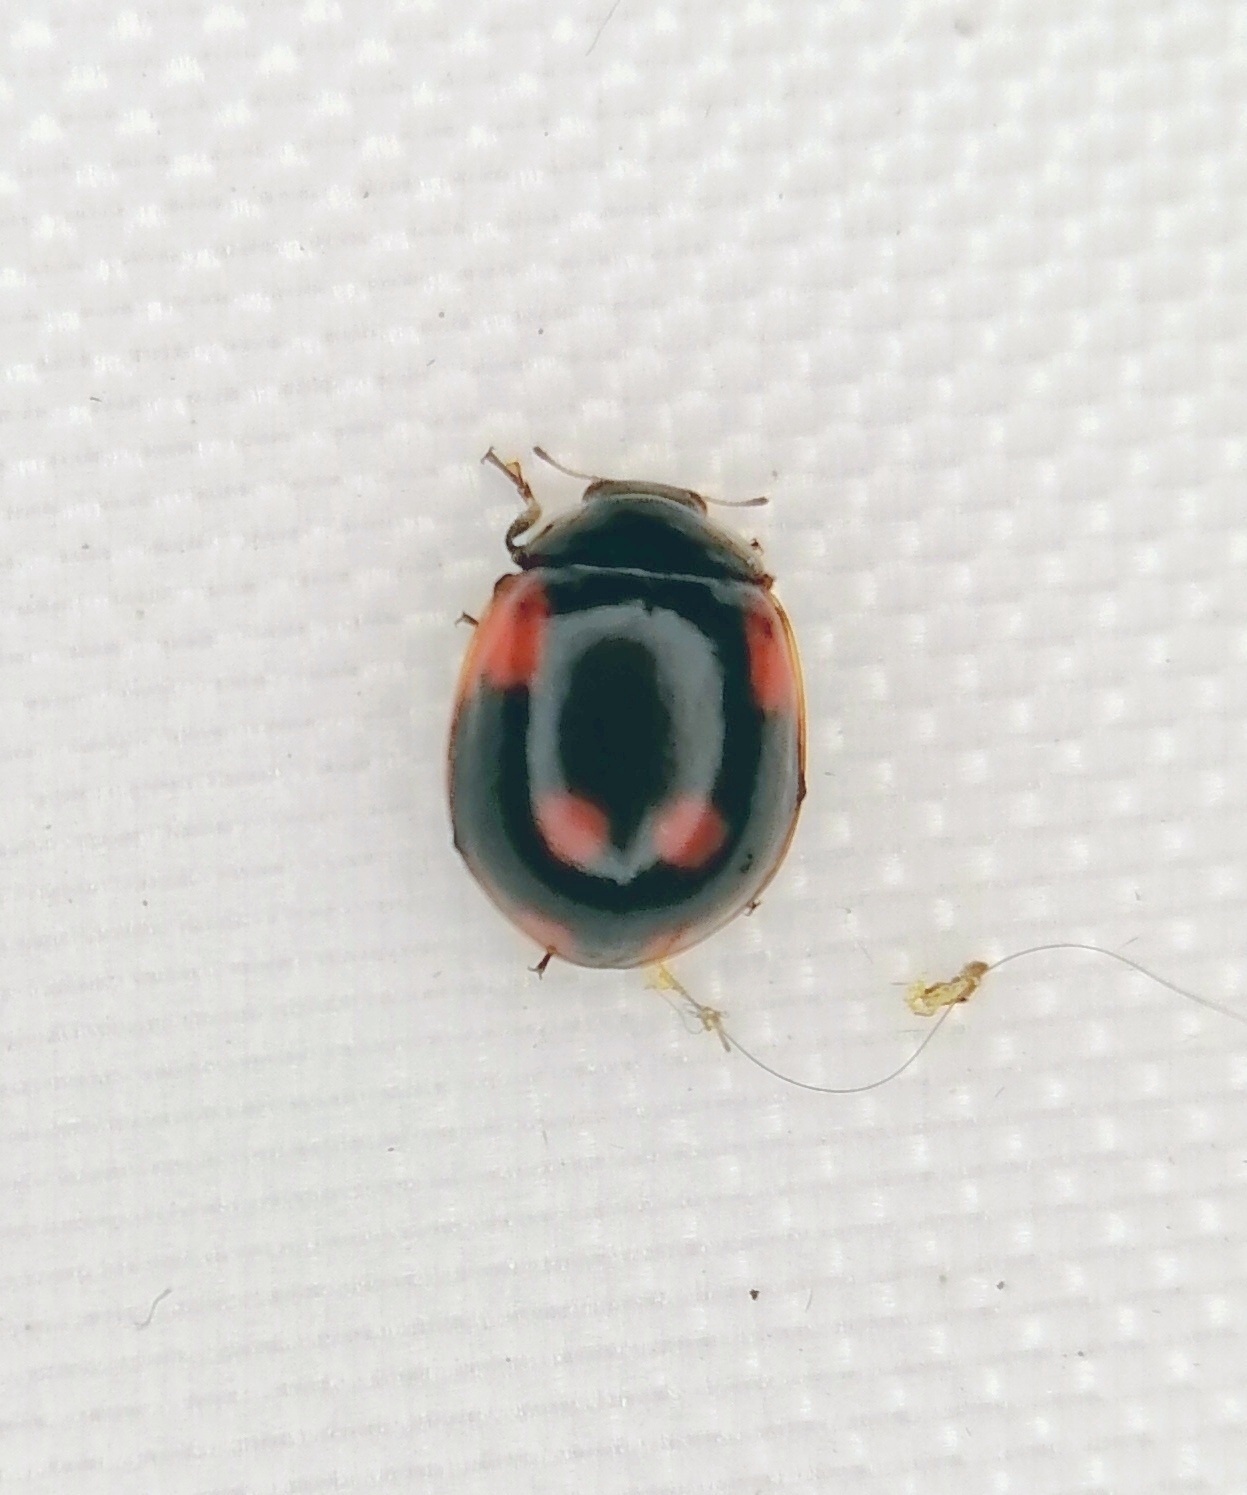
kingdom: Animalia
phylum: Arthropoda
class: Insecta
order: Coleoptera
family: Coccinellidae
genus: Adalia
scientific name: Adalia bipunctata
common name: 2-spot ladybird
